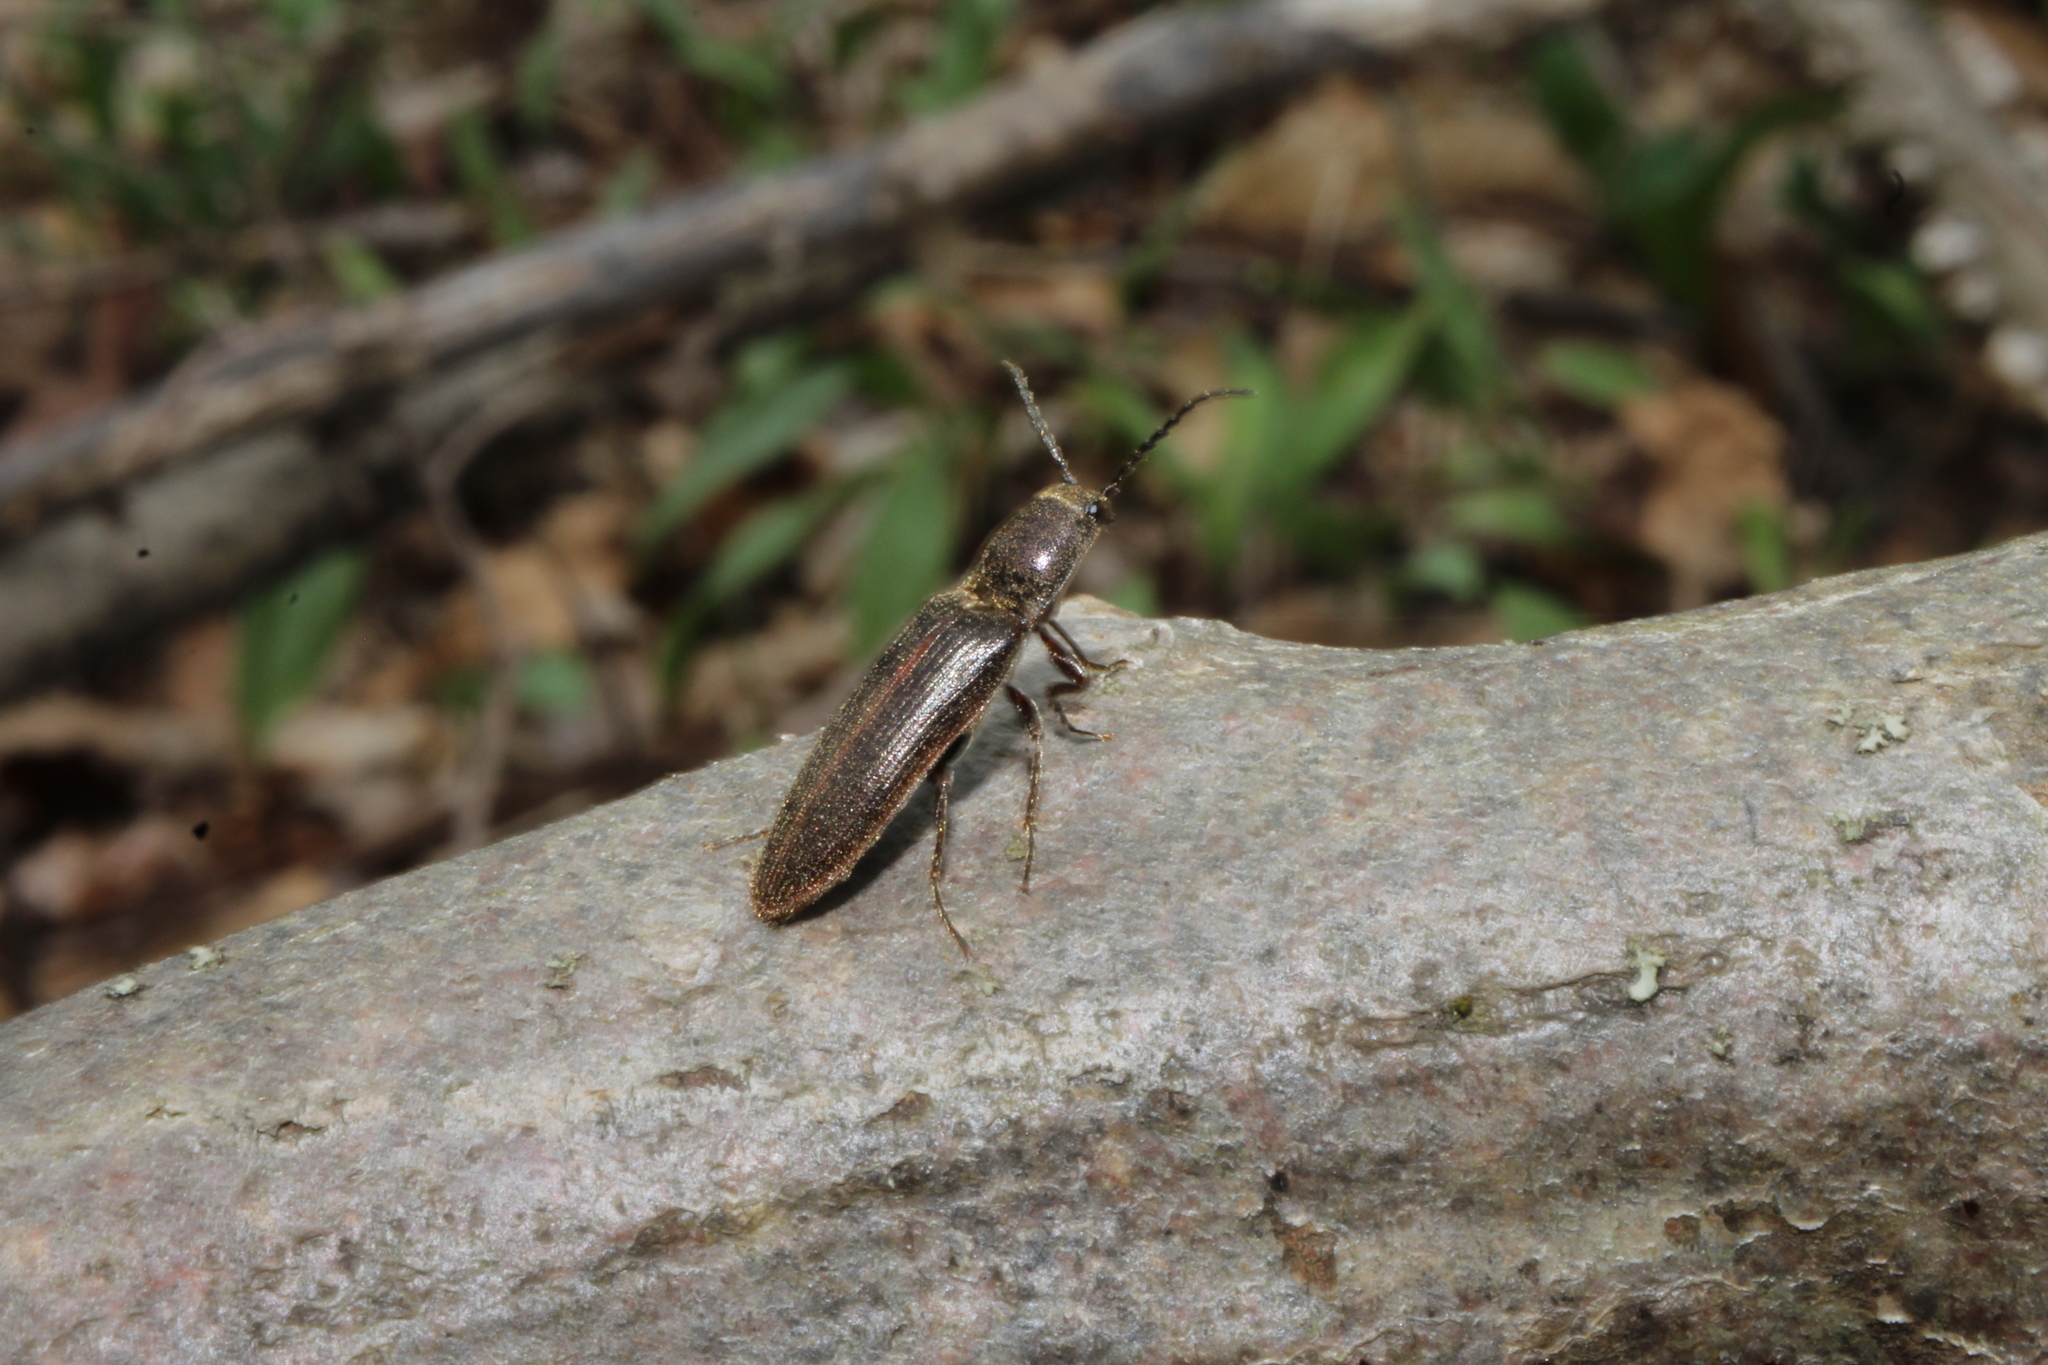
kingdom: Animalia
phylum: Arthropoda
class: Insecta
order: Coleoptera
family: Elateridae
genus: Sylvanelater
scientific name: Sylvanelater cylindriformis
